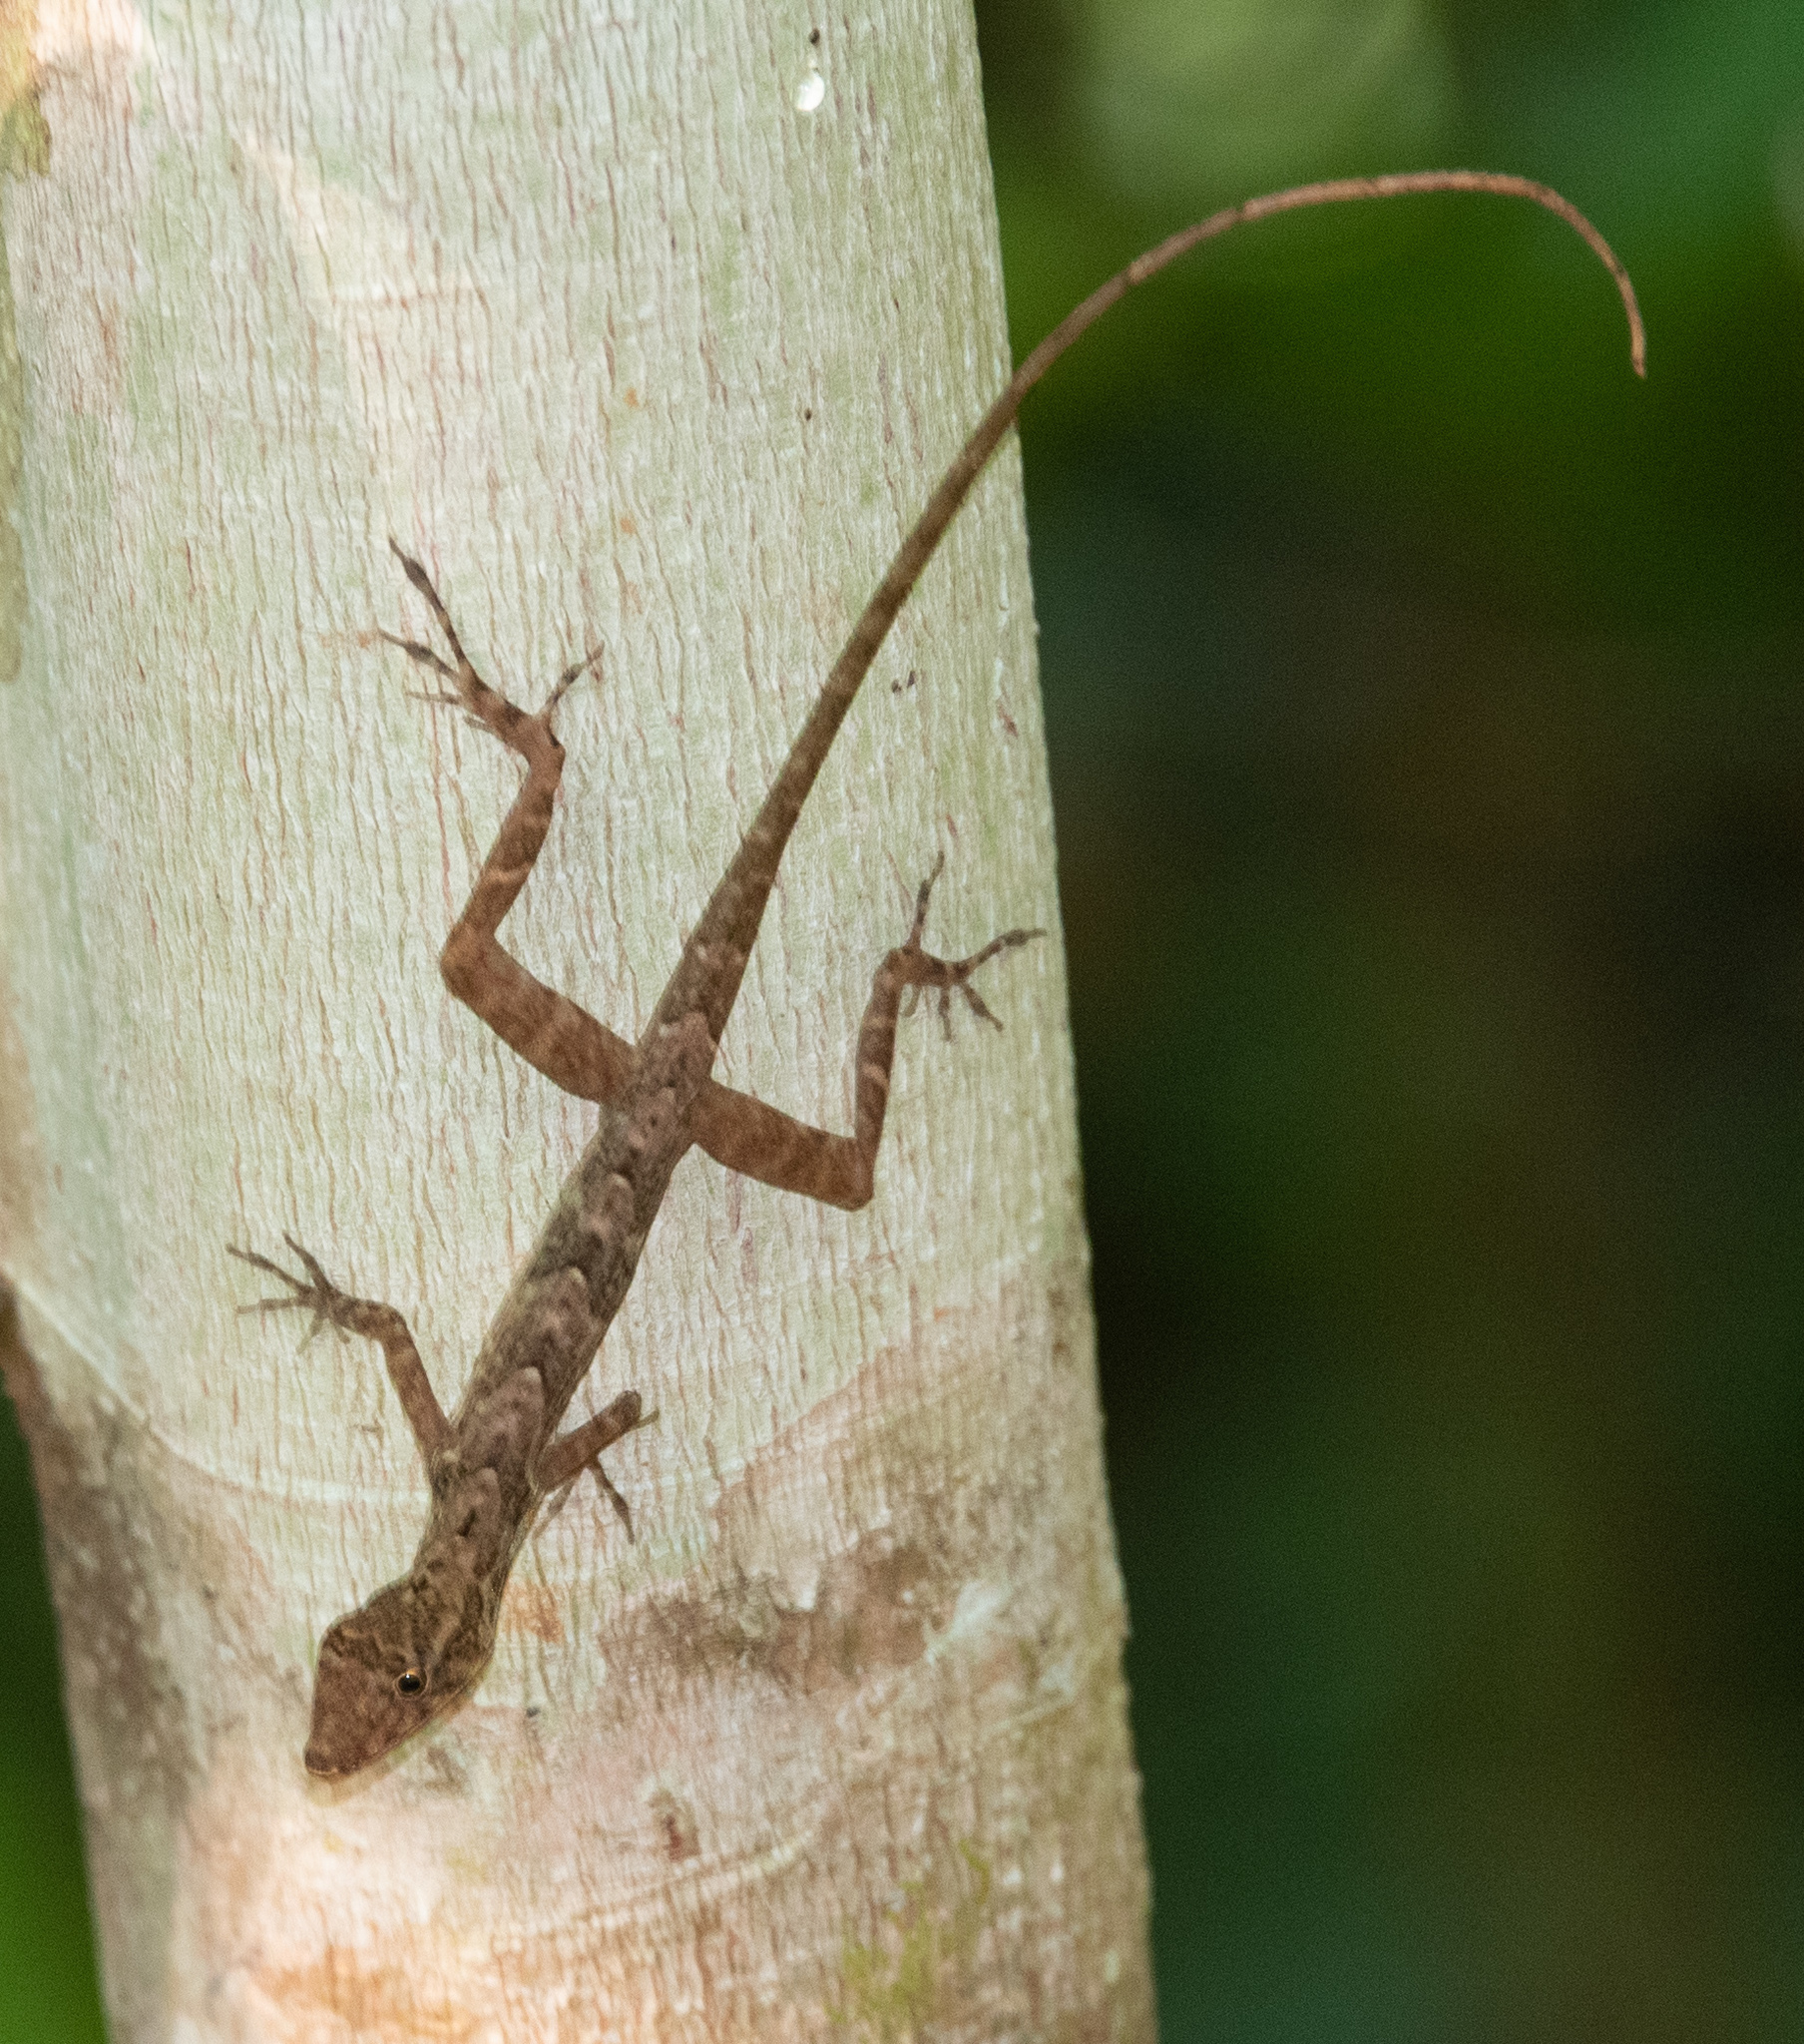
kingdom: Animalia
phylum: Chordata
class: Squamata
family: Dactyloidae
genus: Anolis
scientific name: Anolis osa
